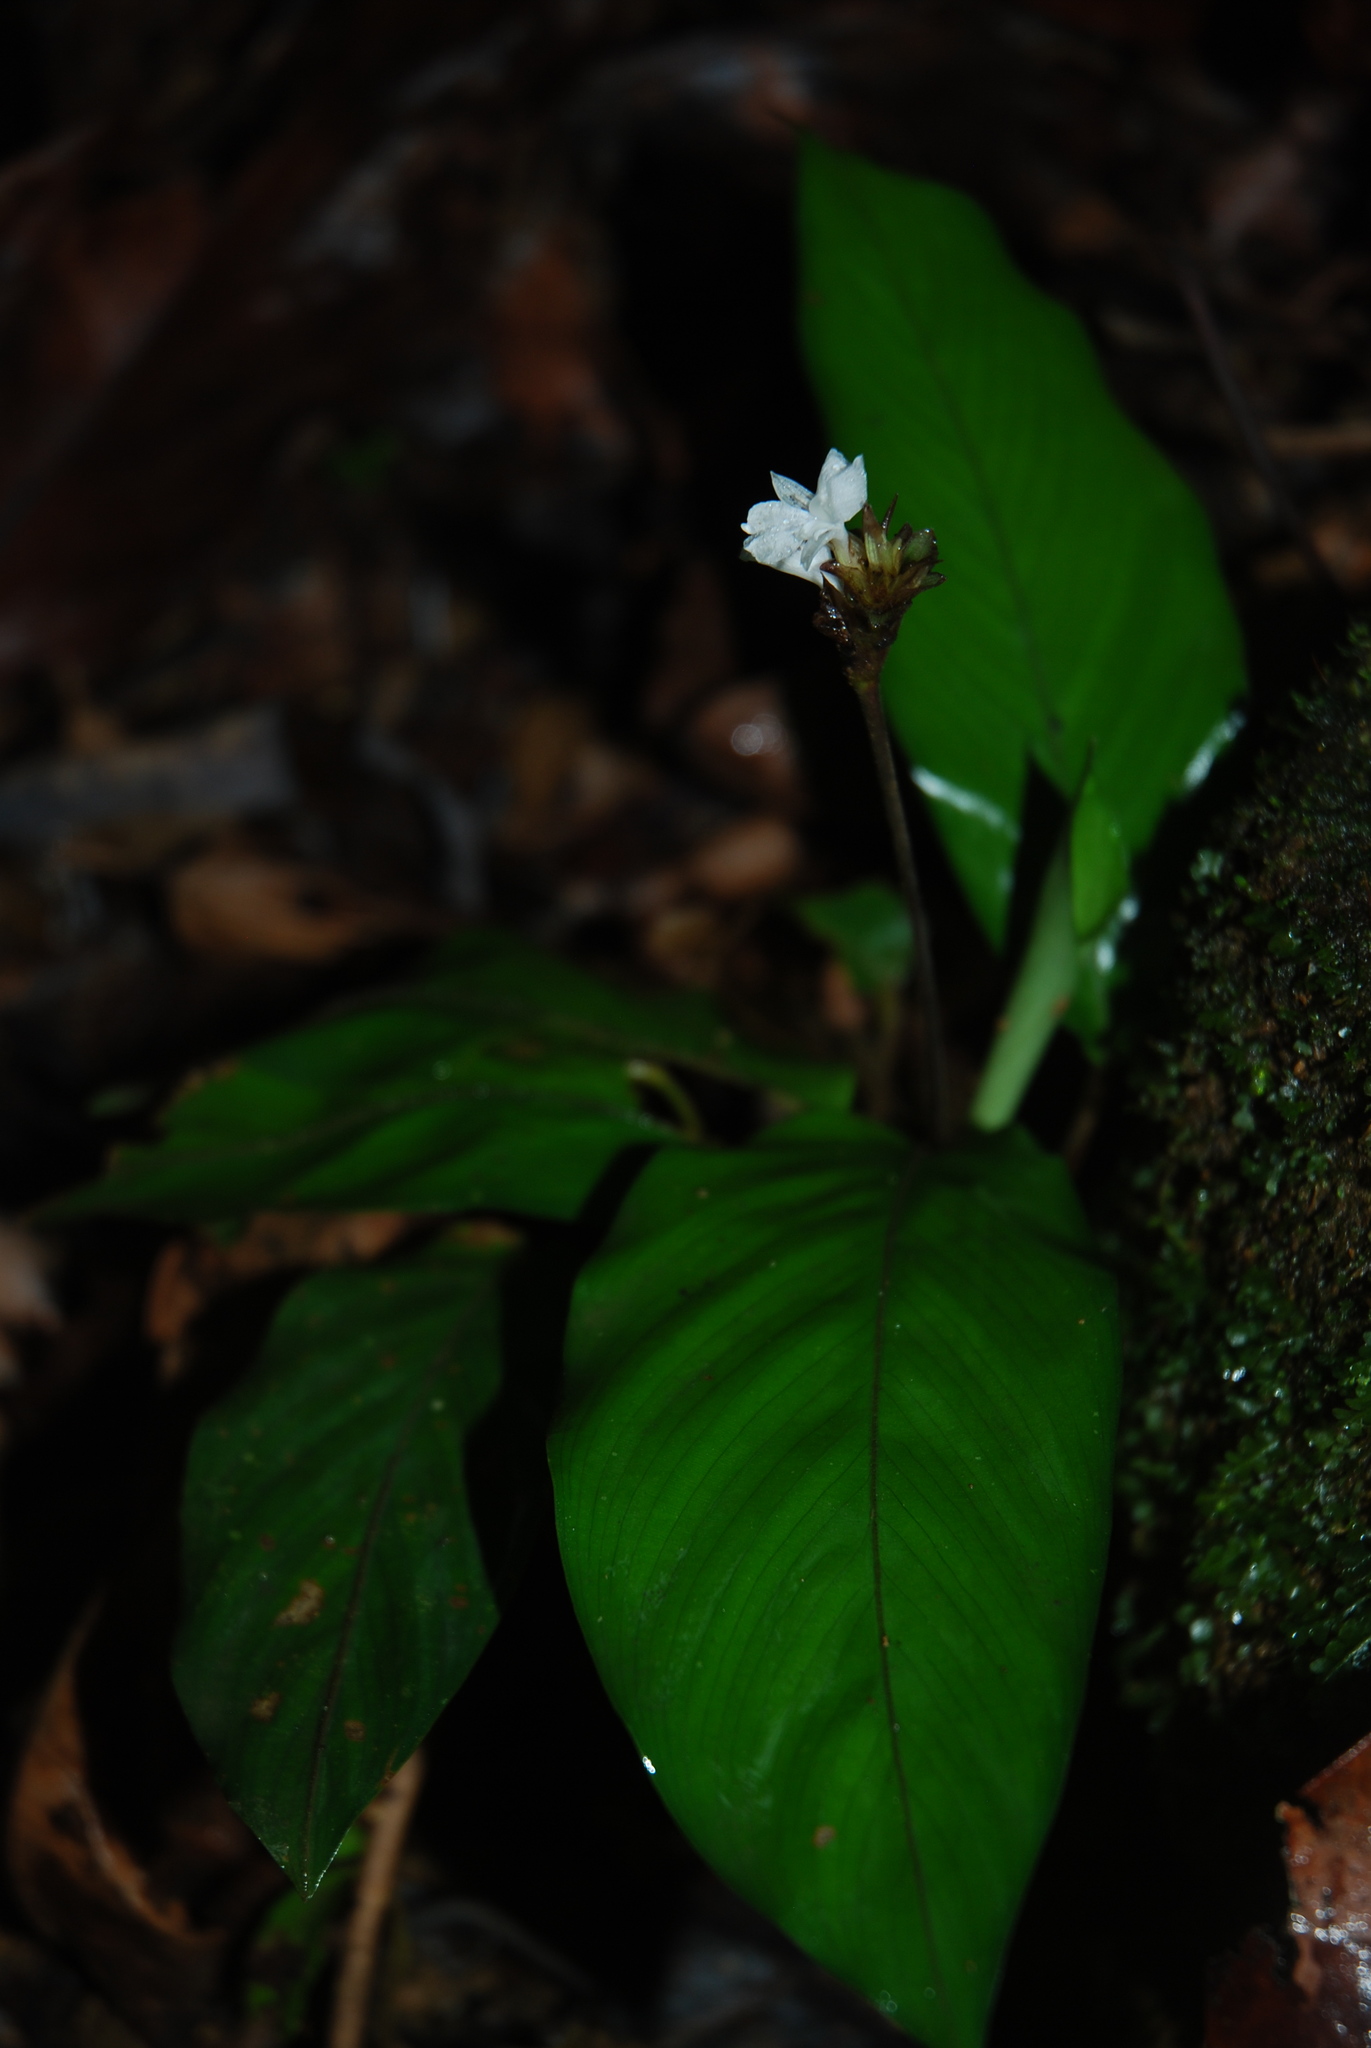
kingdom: Plantae
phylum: Tracheophyta
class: Liliopsida
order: Zingiberales
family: Marantaceae
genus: Goeppertia
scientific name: Goeppertia micans
